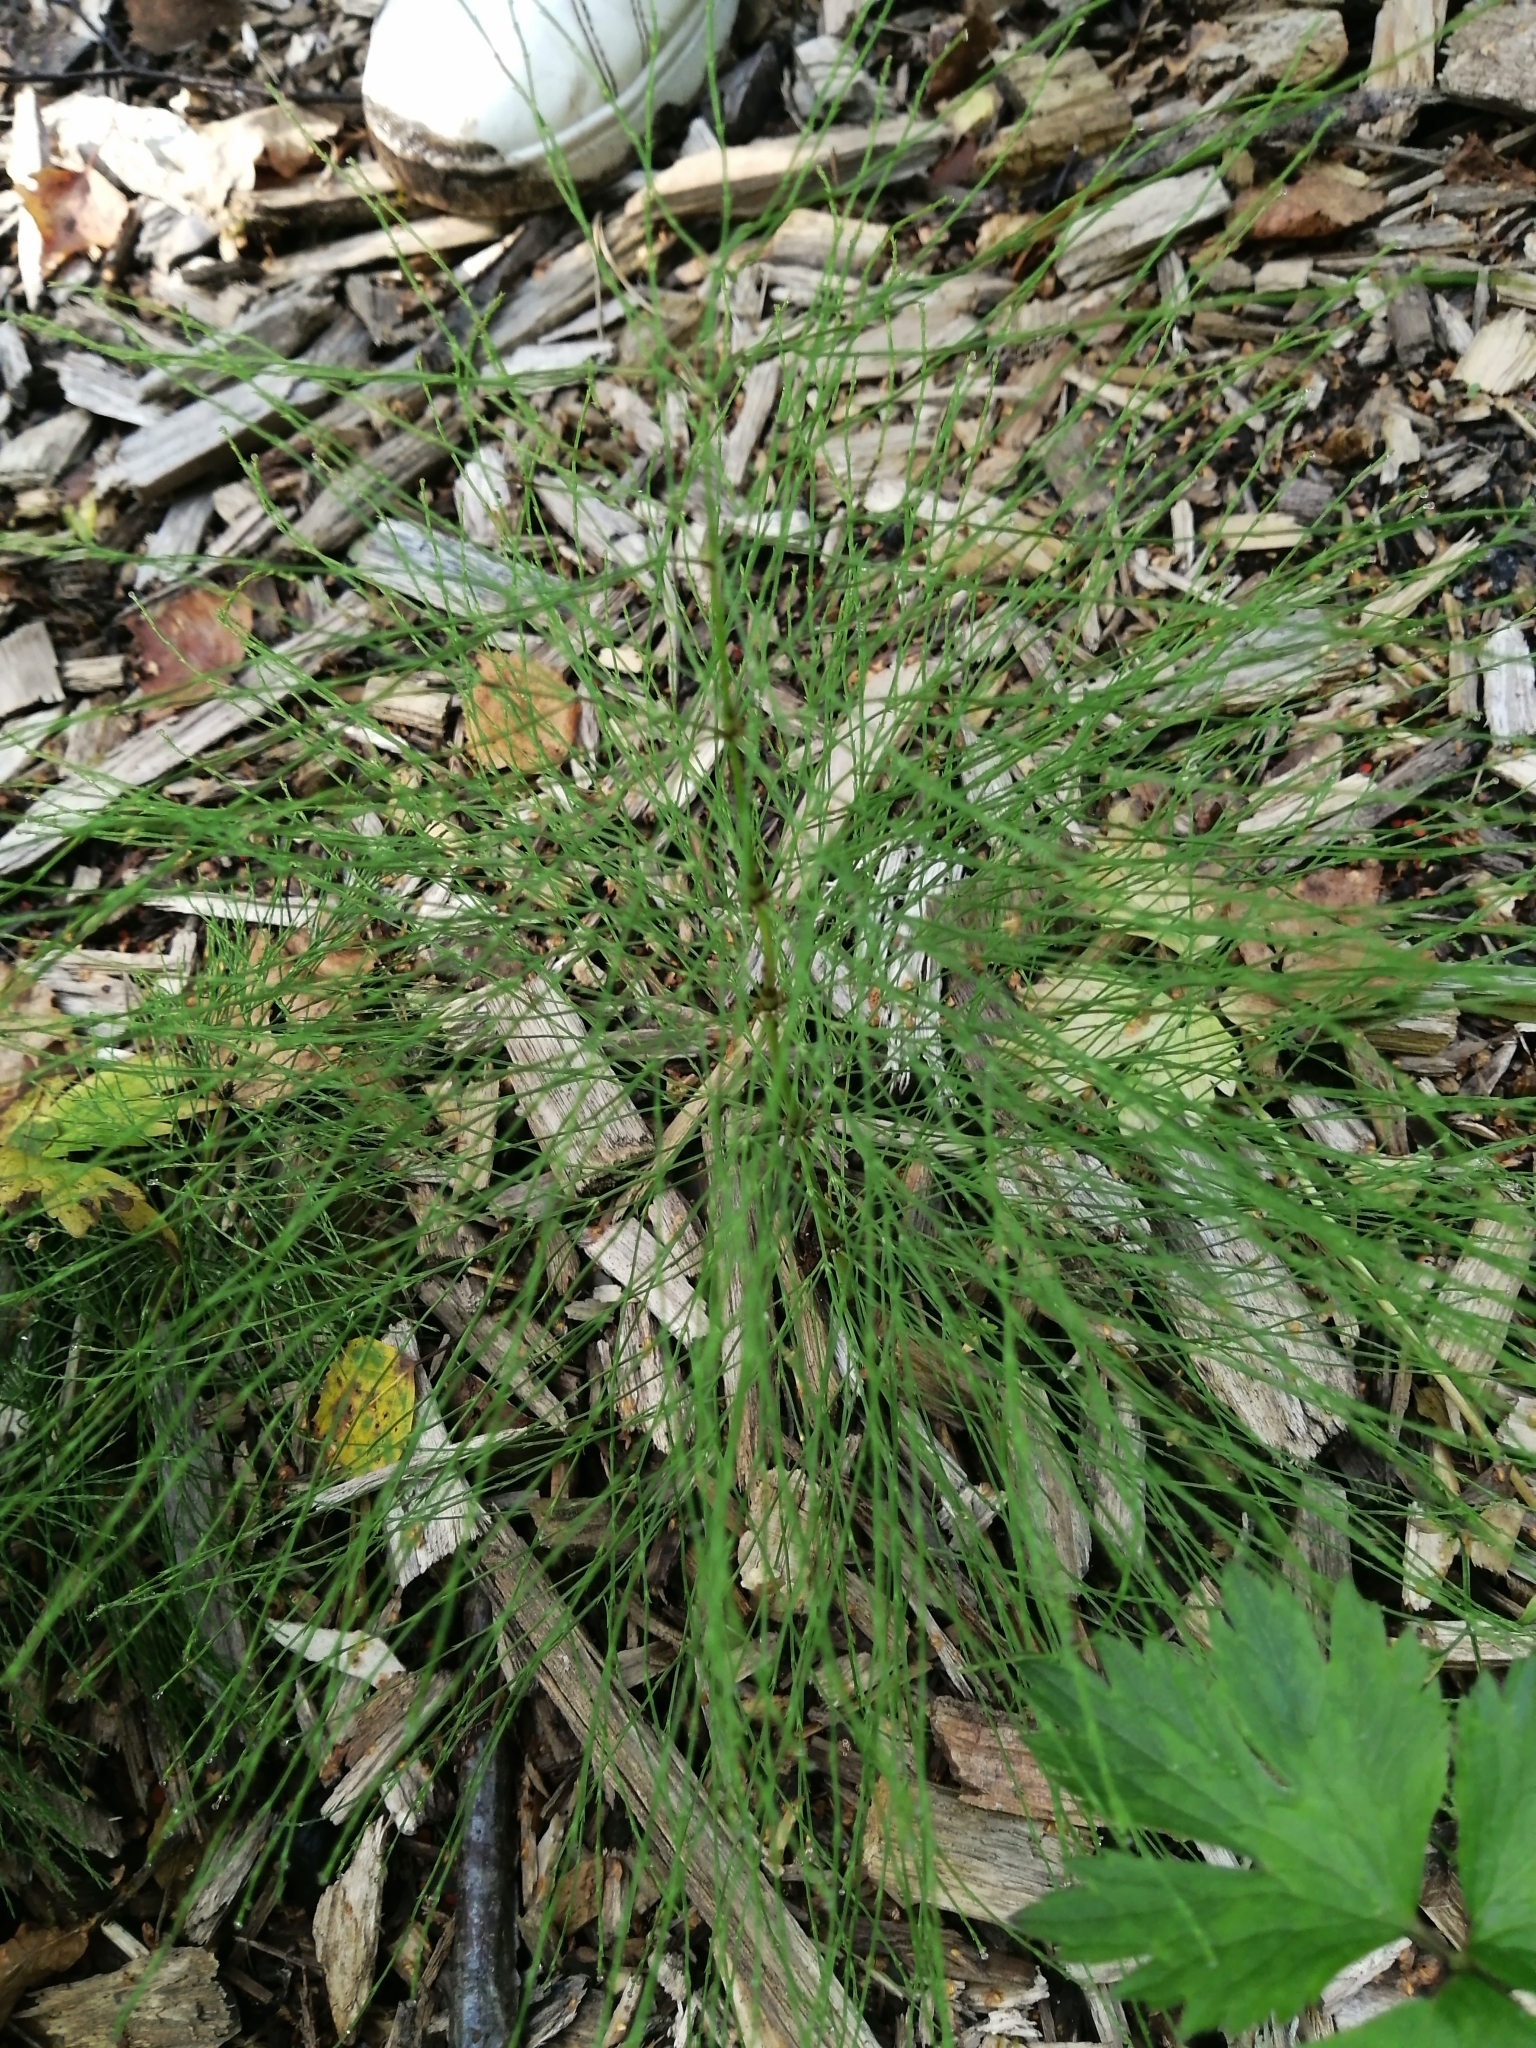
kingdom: Plantae
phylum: Tracheophyta
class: Polypodiopsida
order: Equisetales
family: Equisetaceae
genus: Equisetum
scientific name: Equisetum sylvaticum
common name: Wood horsetail
